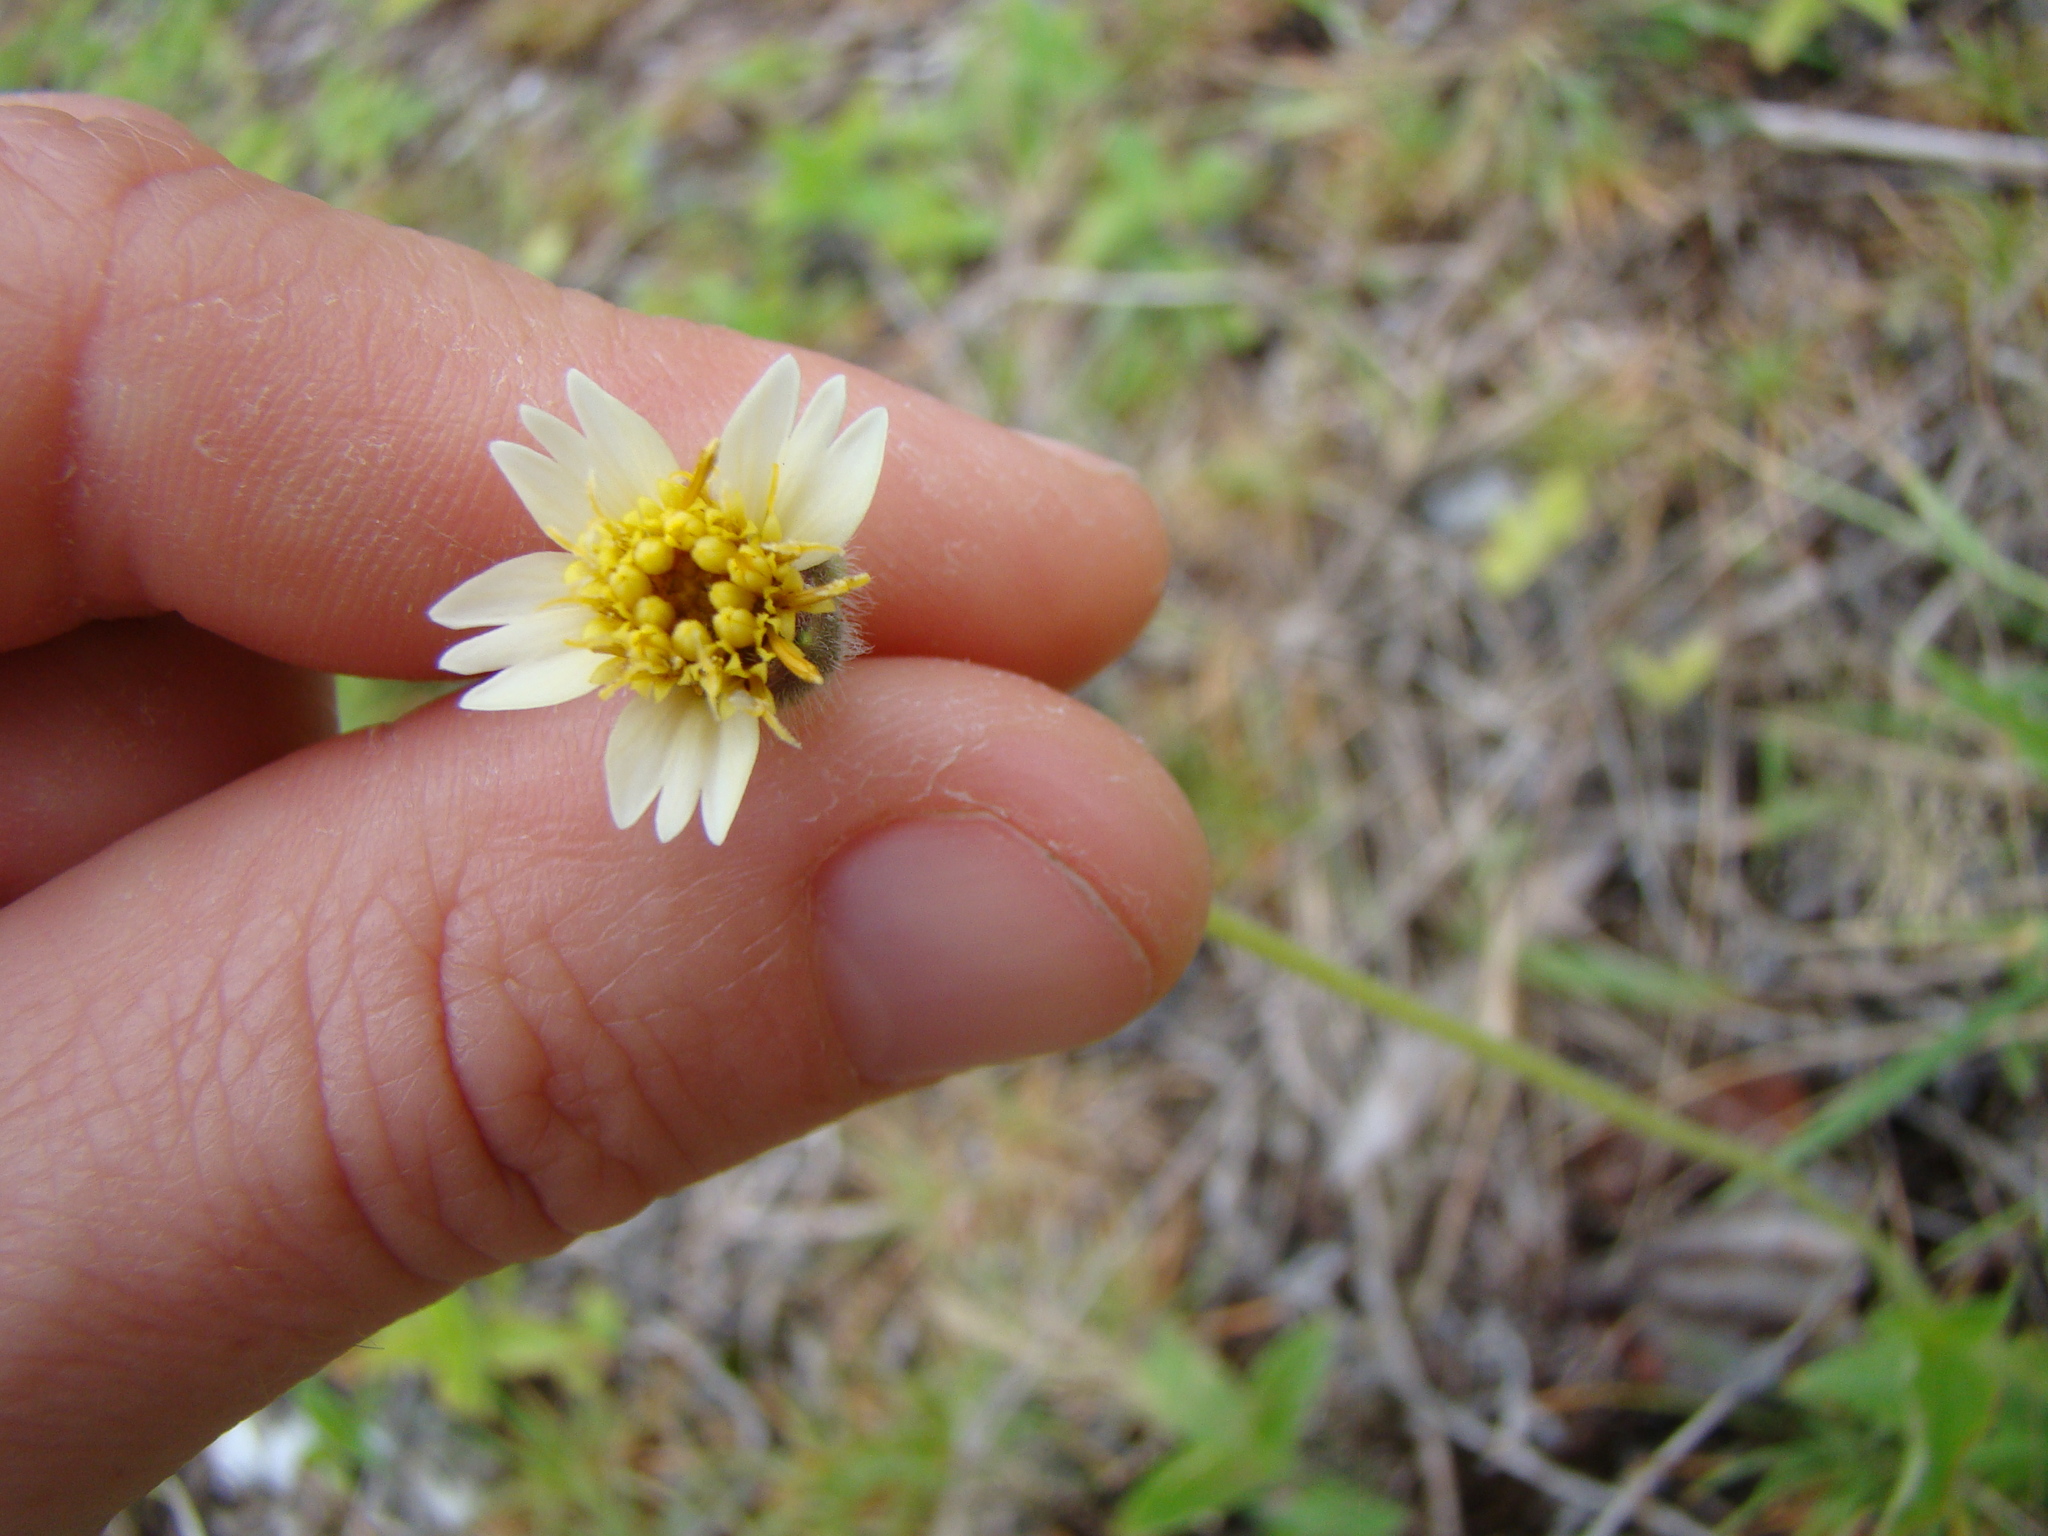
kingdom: Plantae
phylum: Tracheophyta
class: Magnoliopsida
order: Asterales
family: Asteraceae
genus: Tridax
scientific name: Tridax procumbens
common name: Coatbuttons
